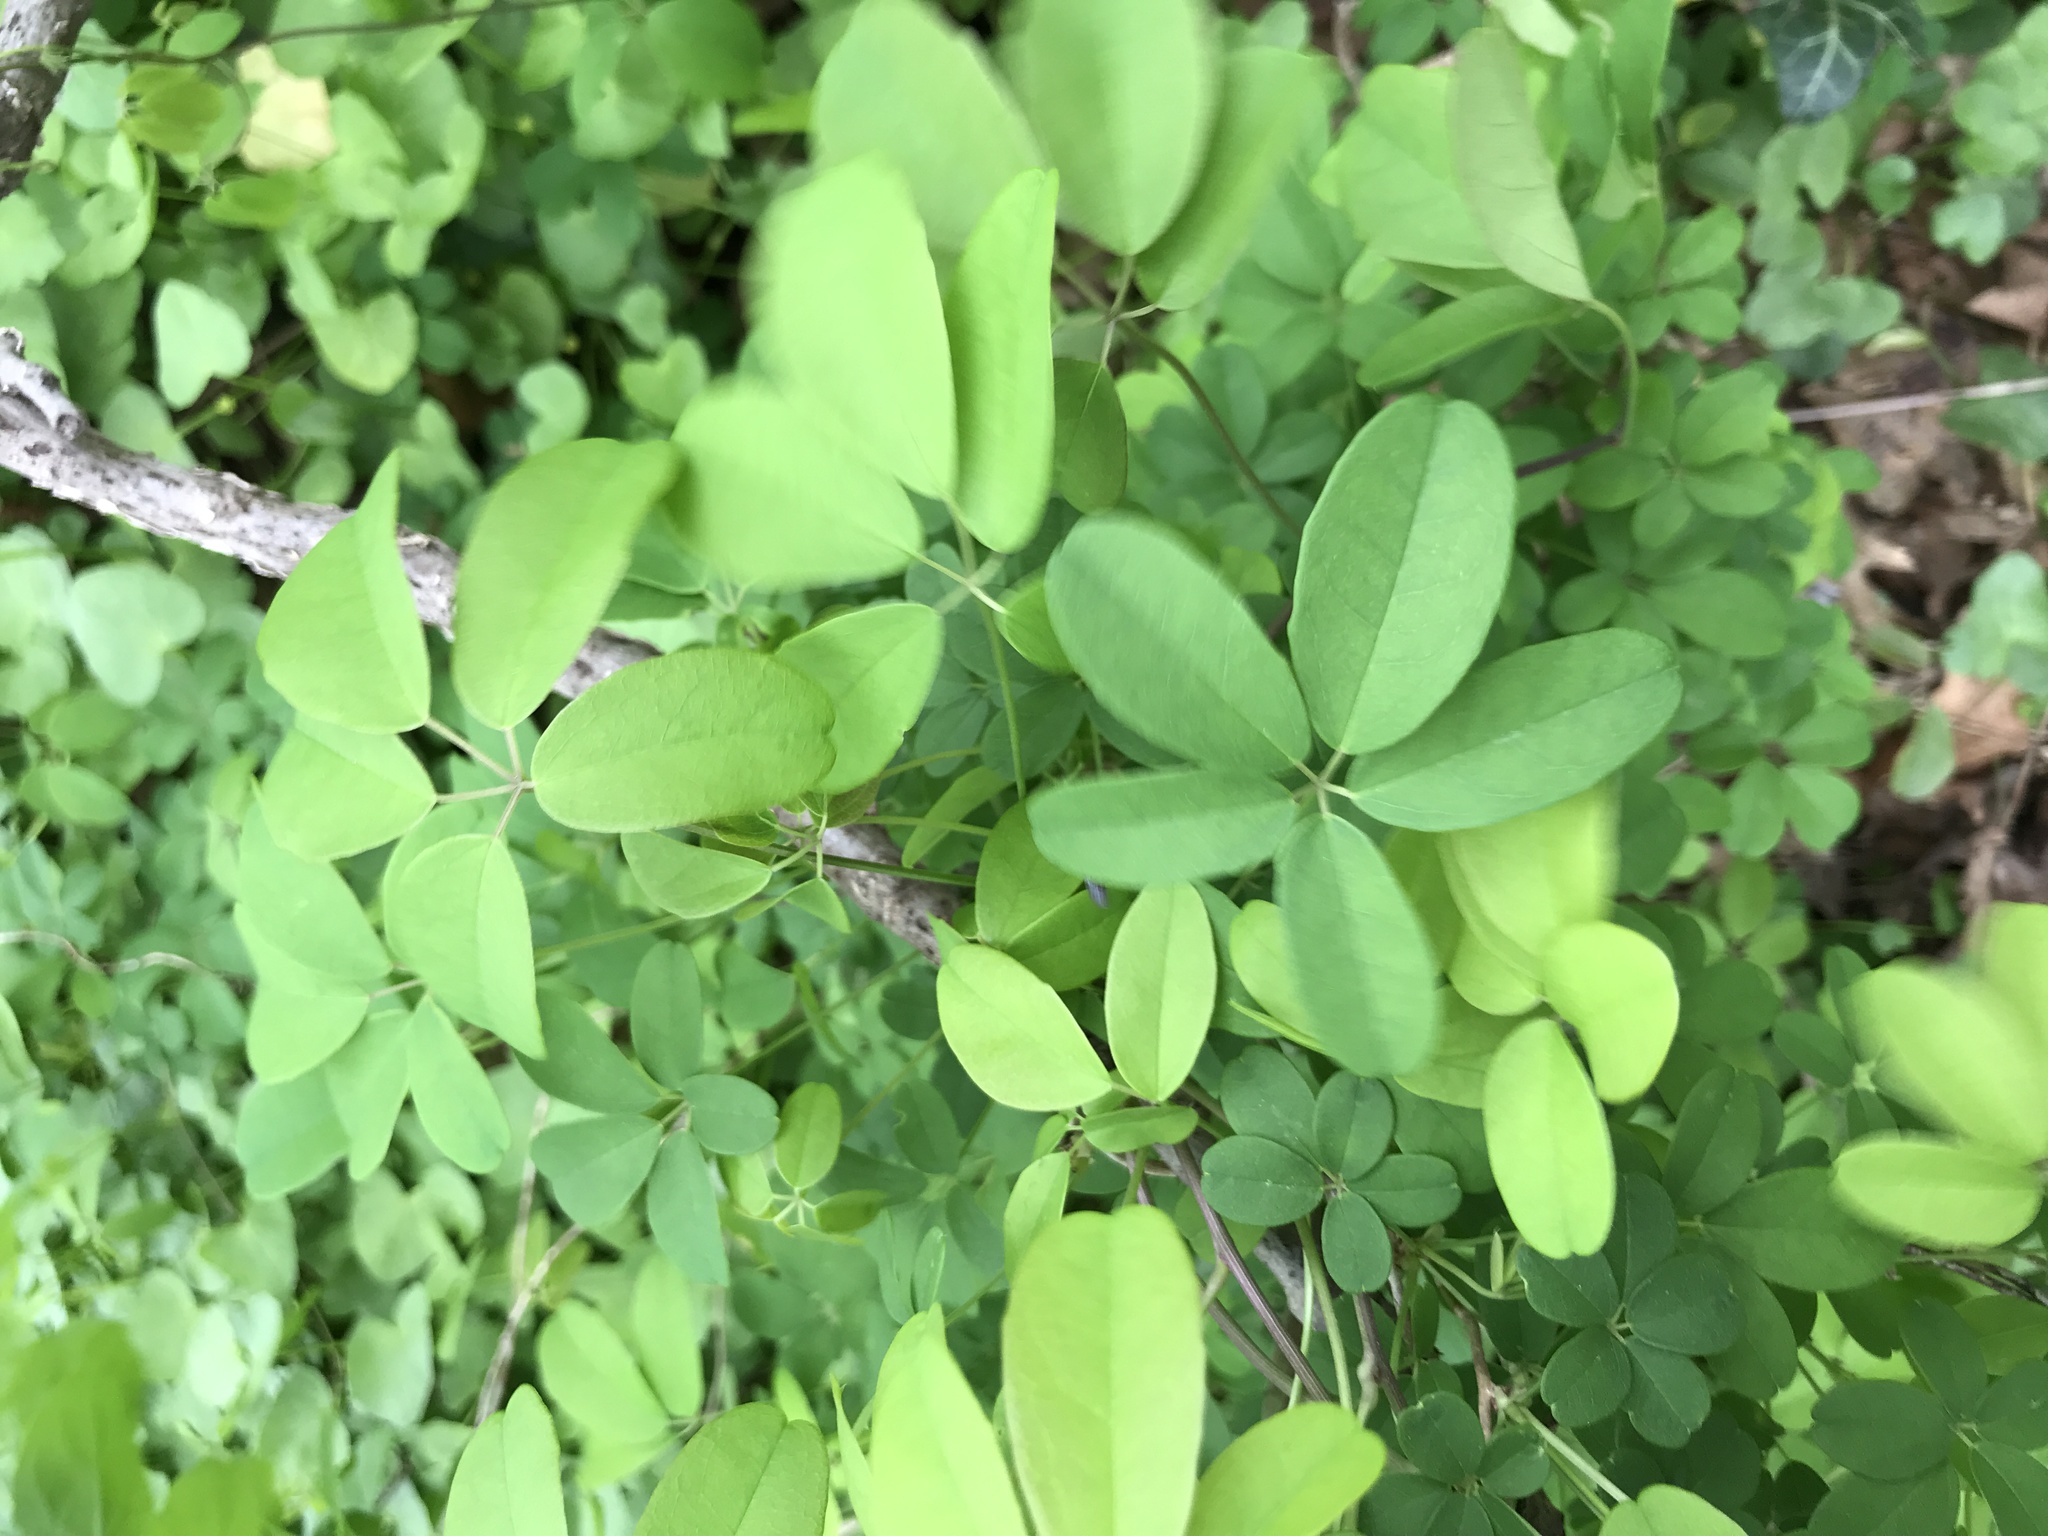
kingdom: Plantae
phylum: Tracheophyta
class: Magnoliopsida
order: Ranunculales
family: Lardizabalaceae
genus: Akebia
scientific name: Akebia quinata
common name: Five-leaf akebia
